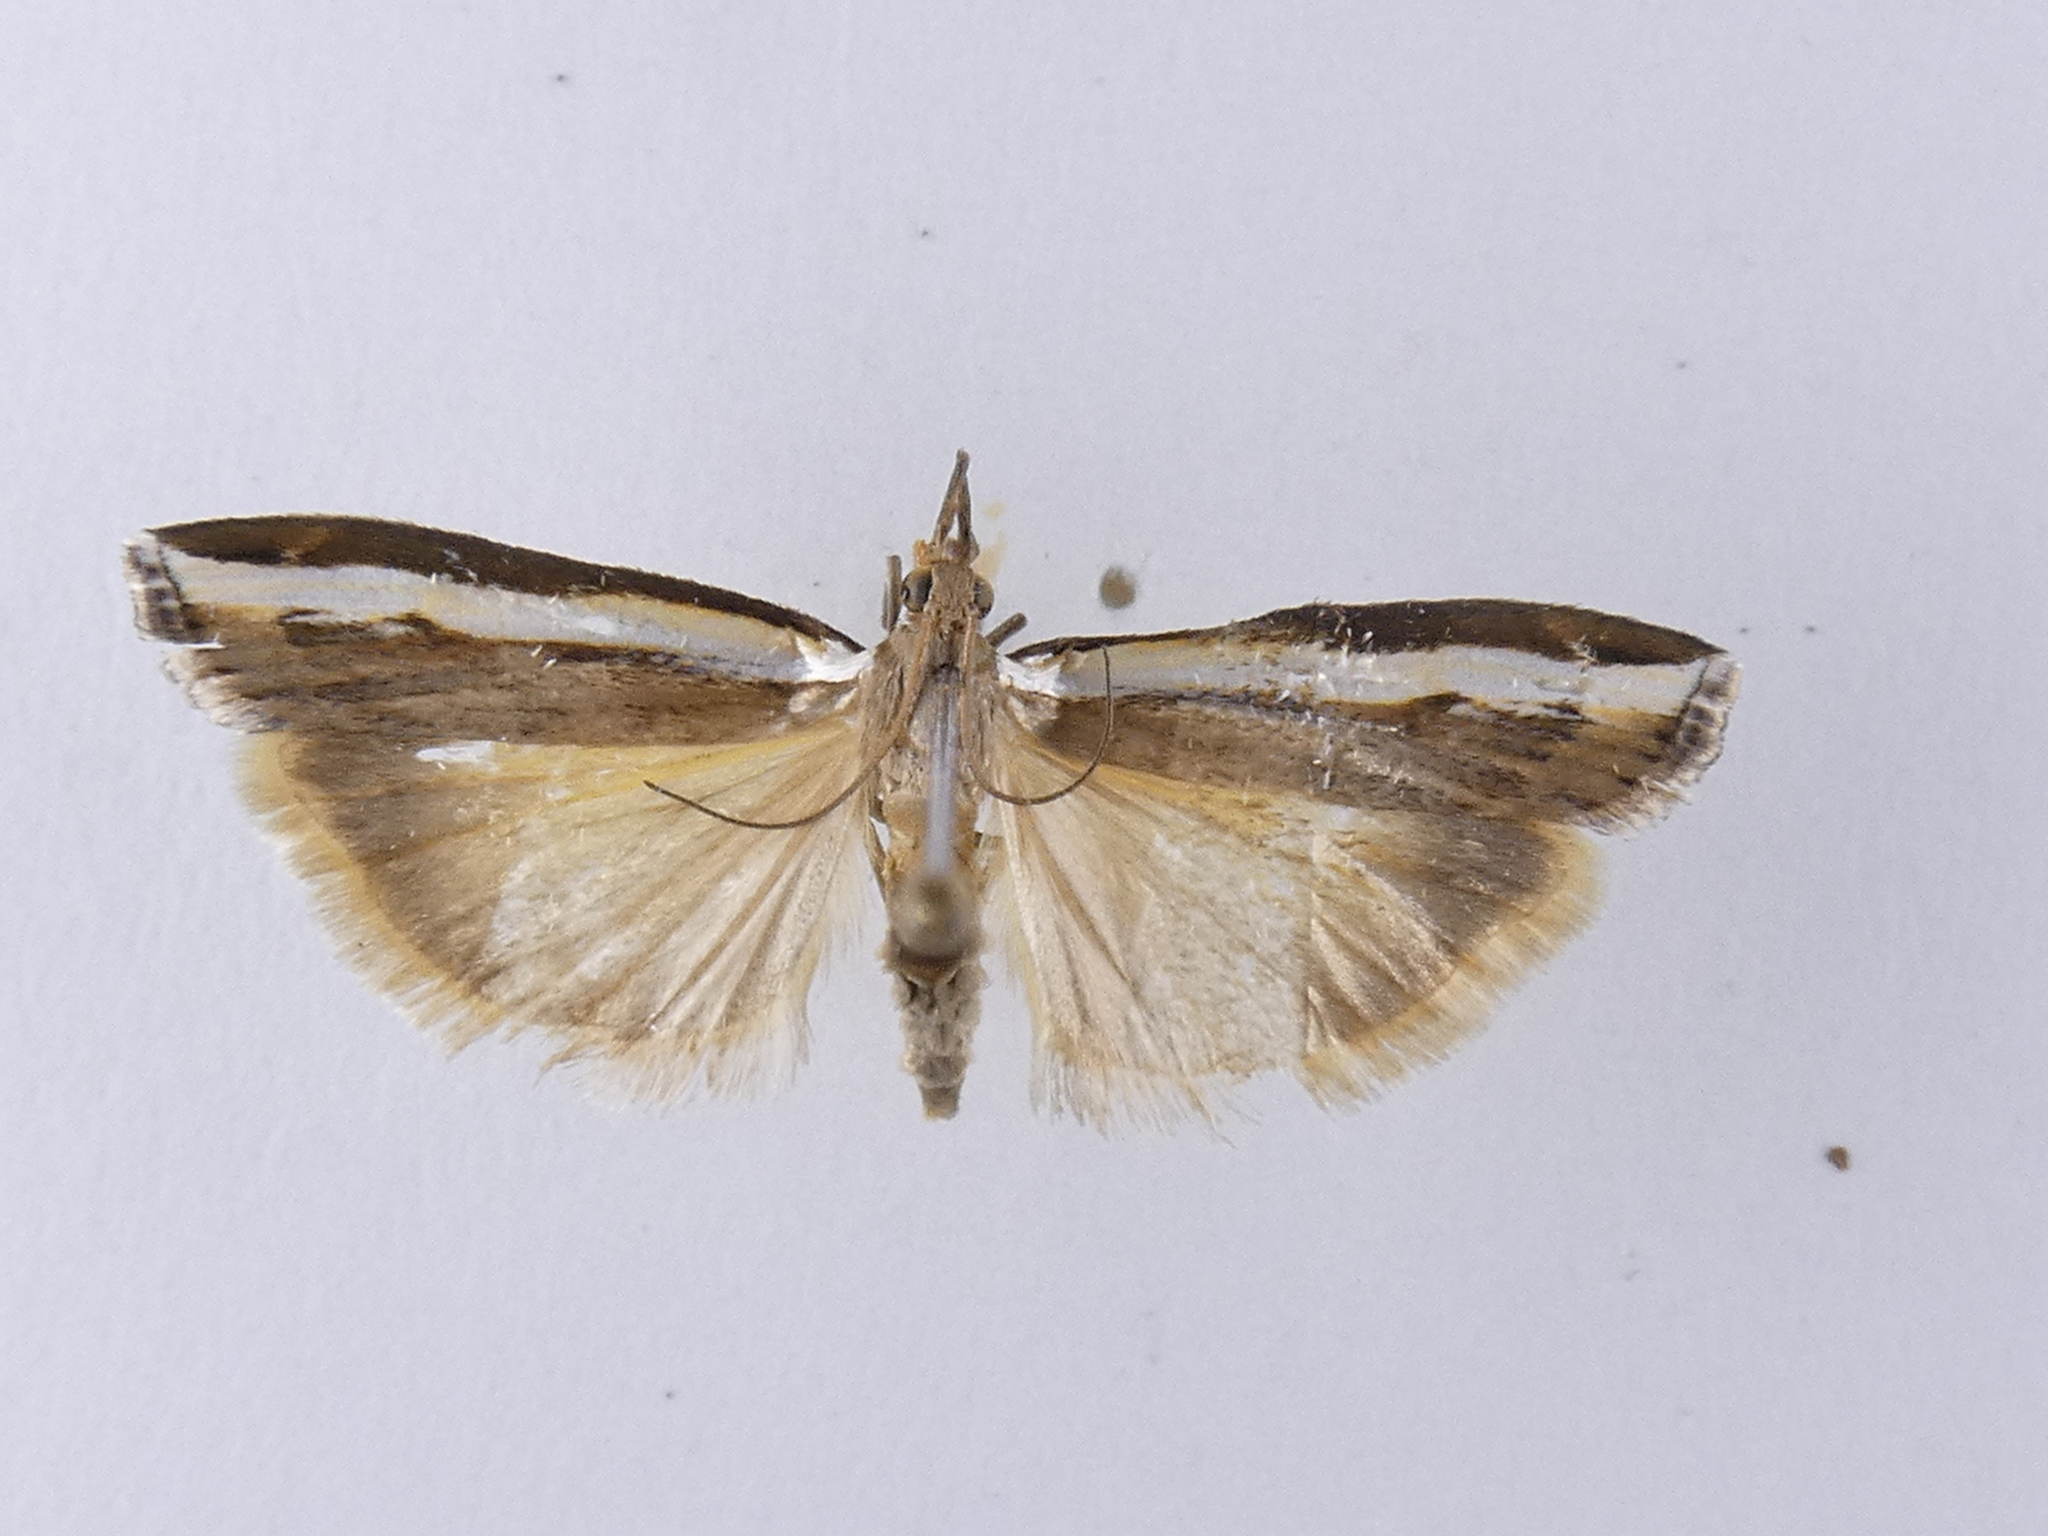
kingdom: Animalia
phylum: Arthropoda
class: Insecta
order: Lepidoptera
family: Crambidae
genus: Orocrambus
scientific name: Orocrambus flexuosellus
